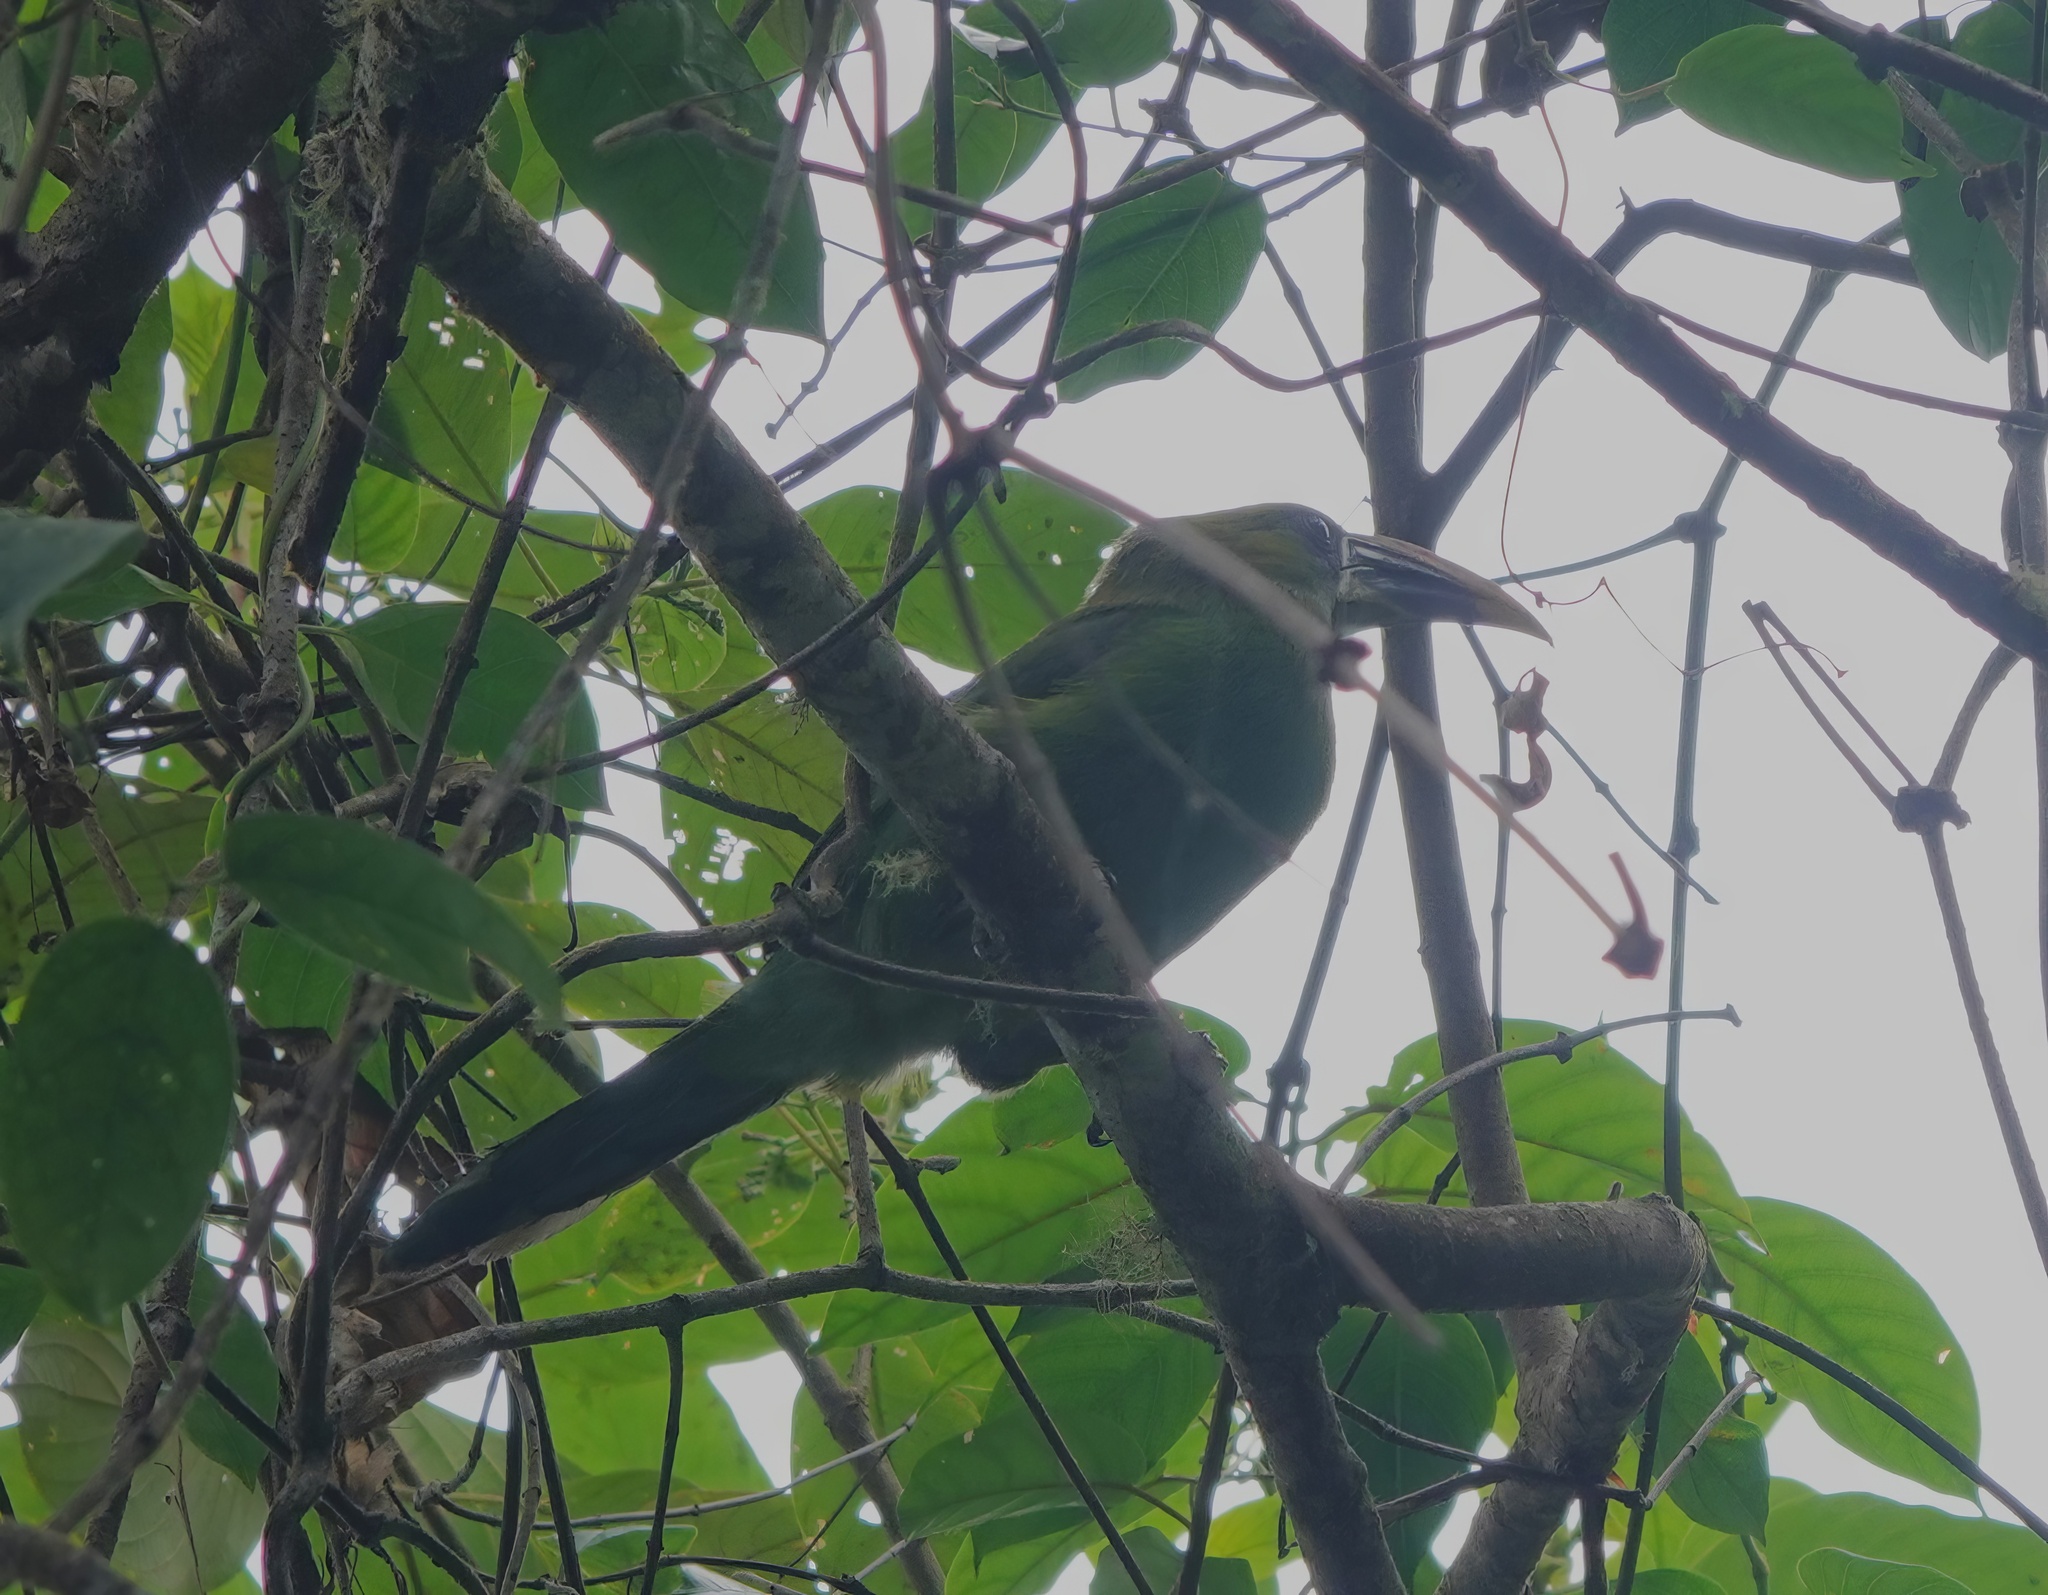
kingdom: Animalia
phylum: Chordata
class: Aves
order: Piciformes
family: Ramphastidae
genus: Aulacorhynchus
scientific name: Aulacorhynchus sulcatus
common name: Groove-billed toucanet
